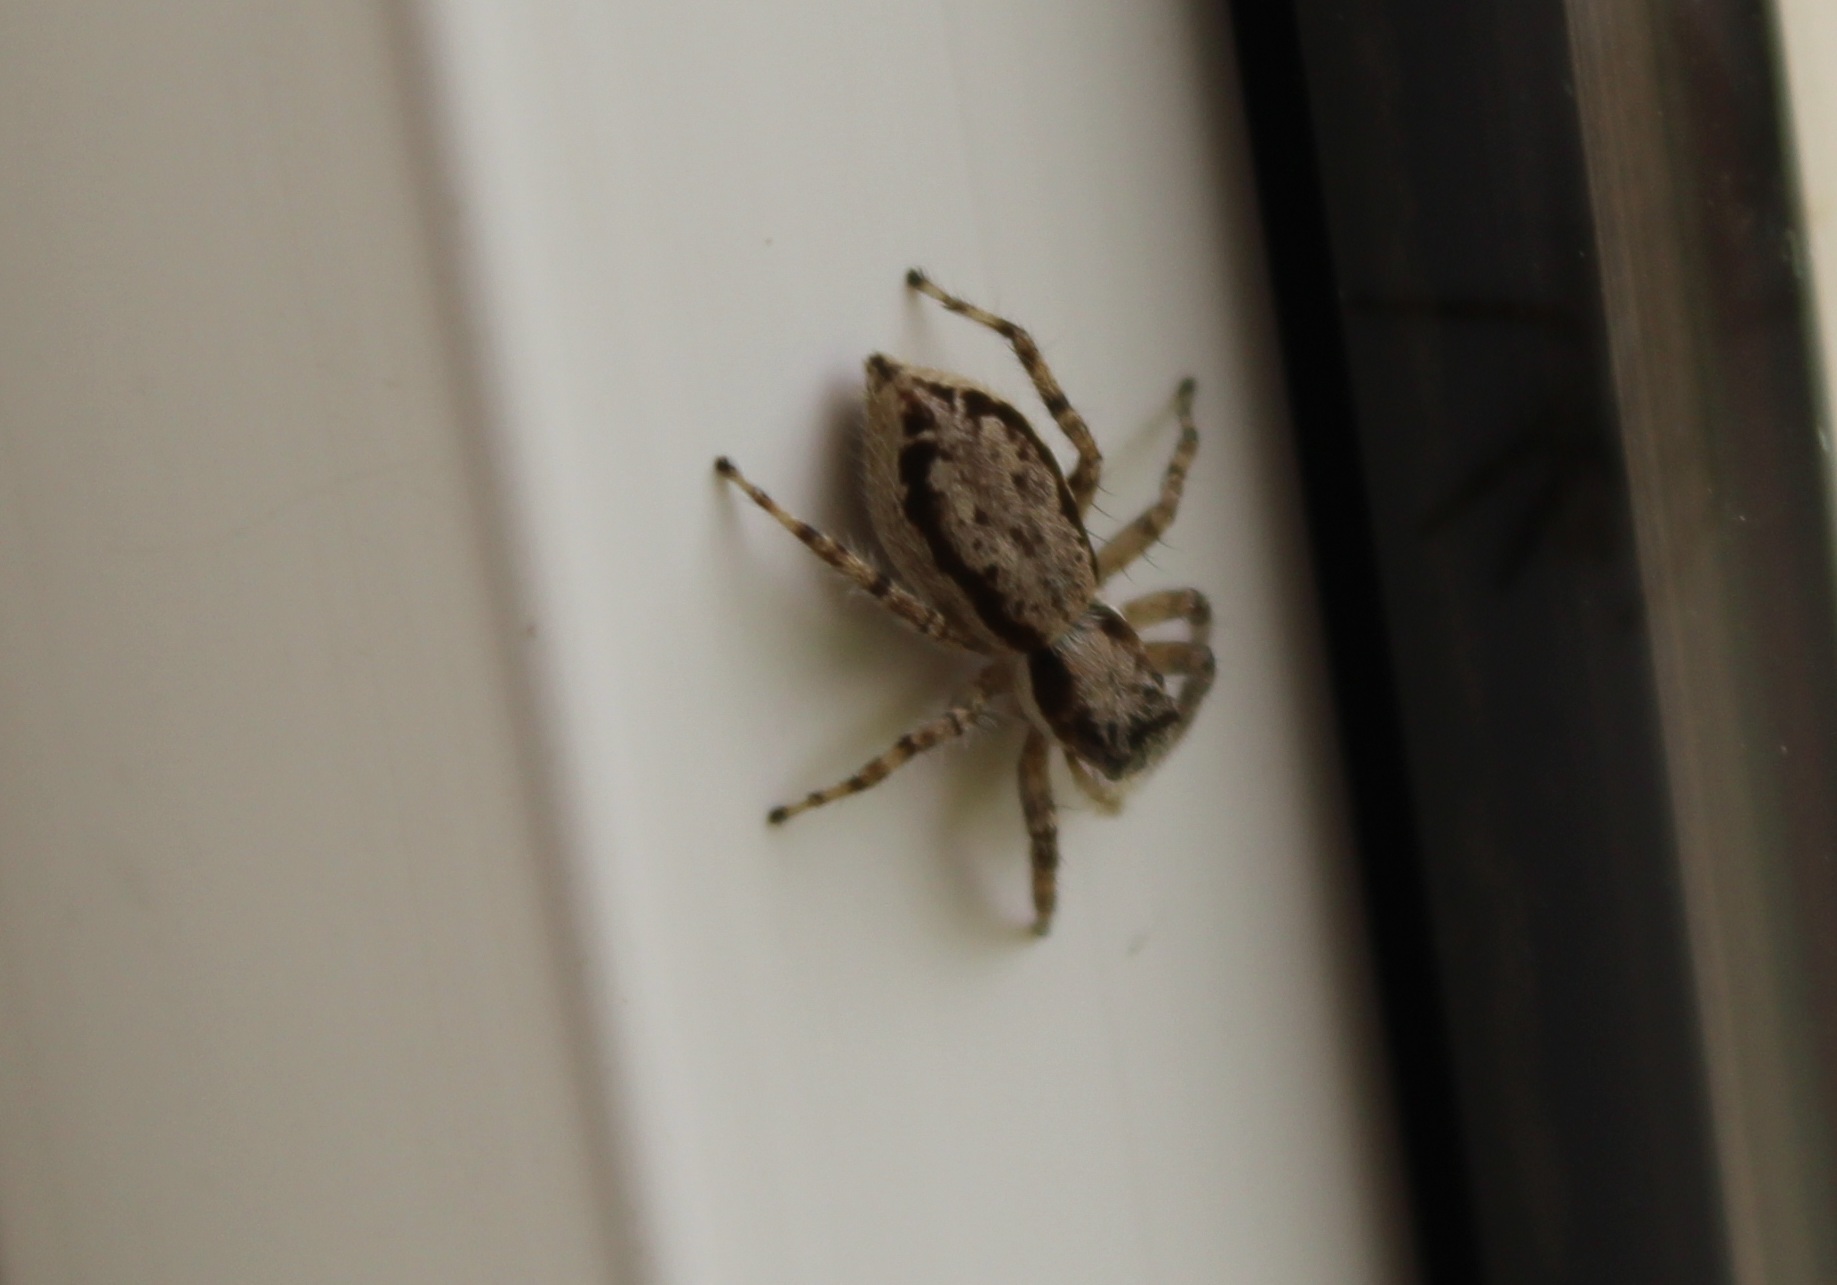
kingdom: Animalia
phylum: Arthropoda
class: Arachnida
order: Araneae
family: Salticidae
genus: Menemerus
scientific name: Menemerus bivittatus
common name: Gray wall jumper
